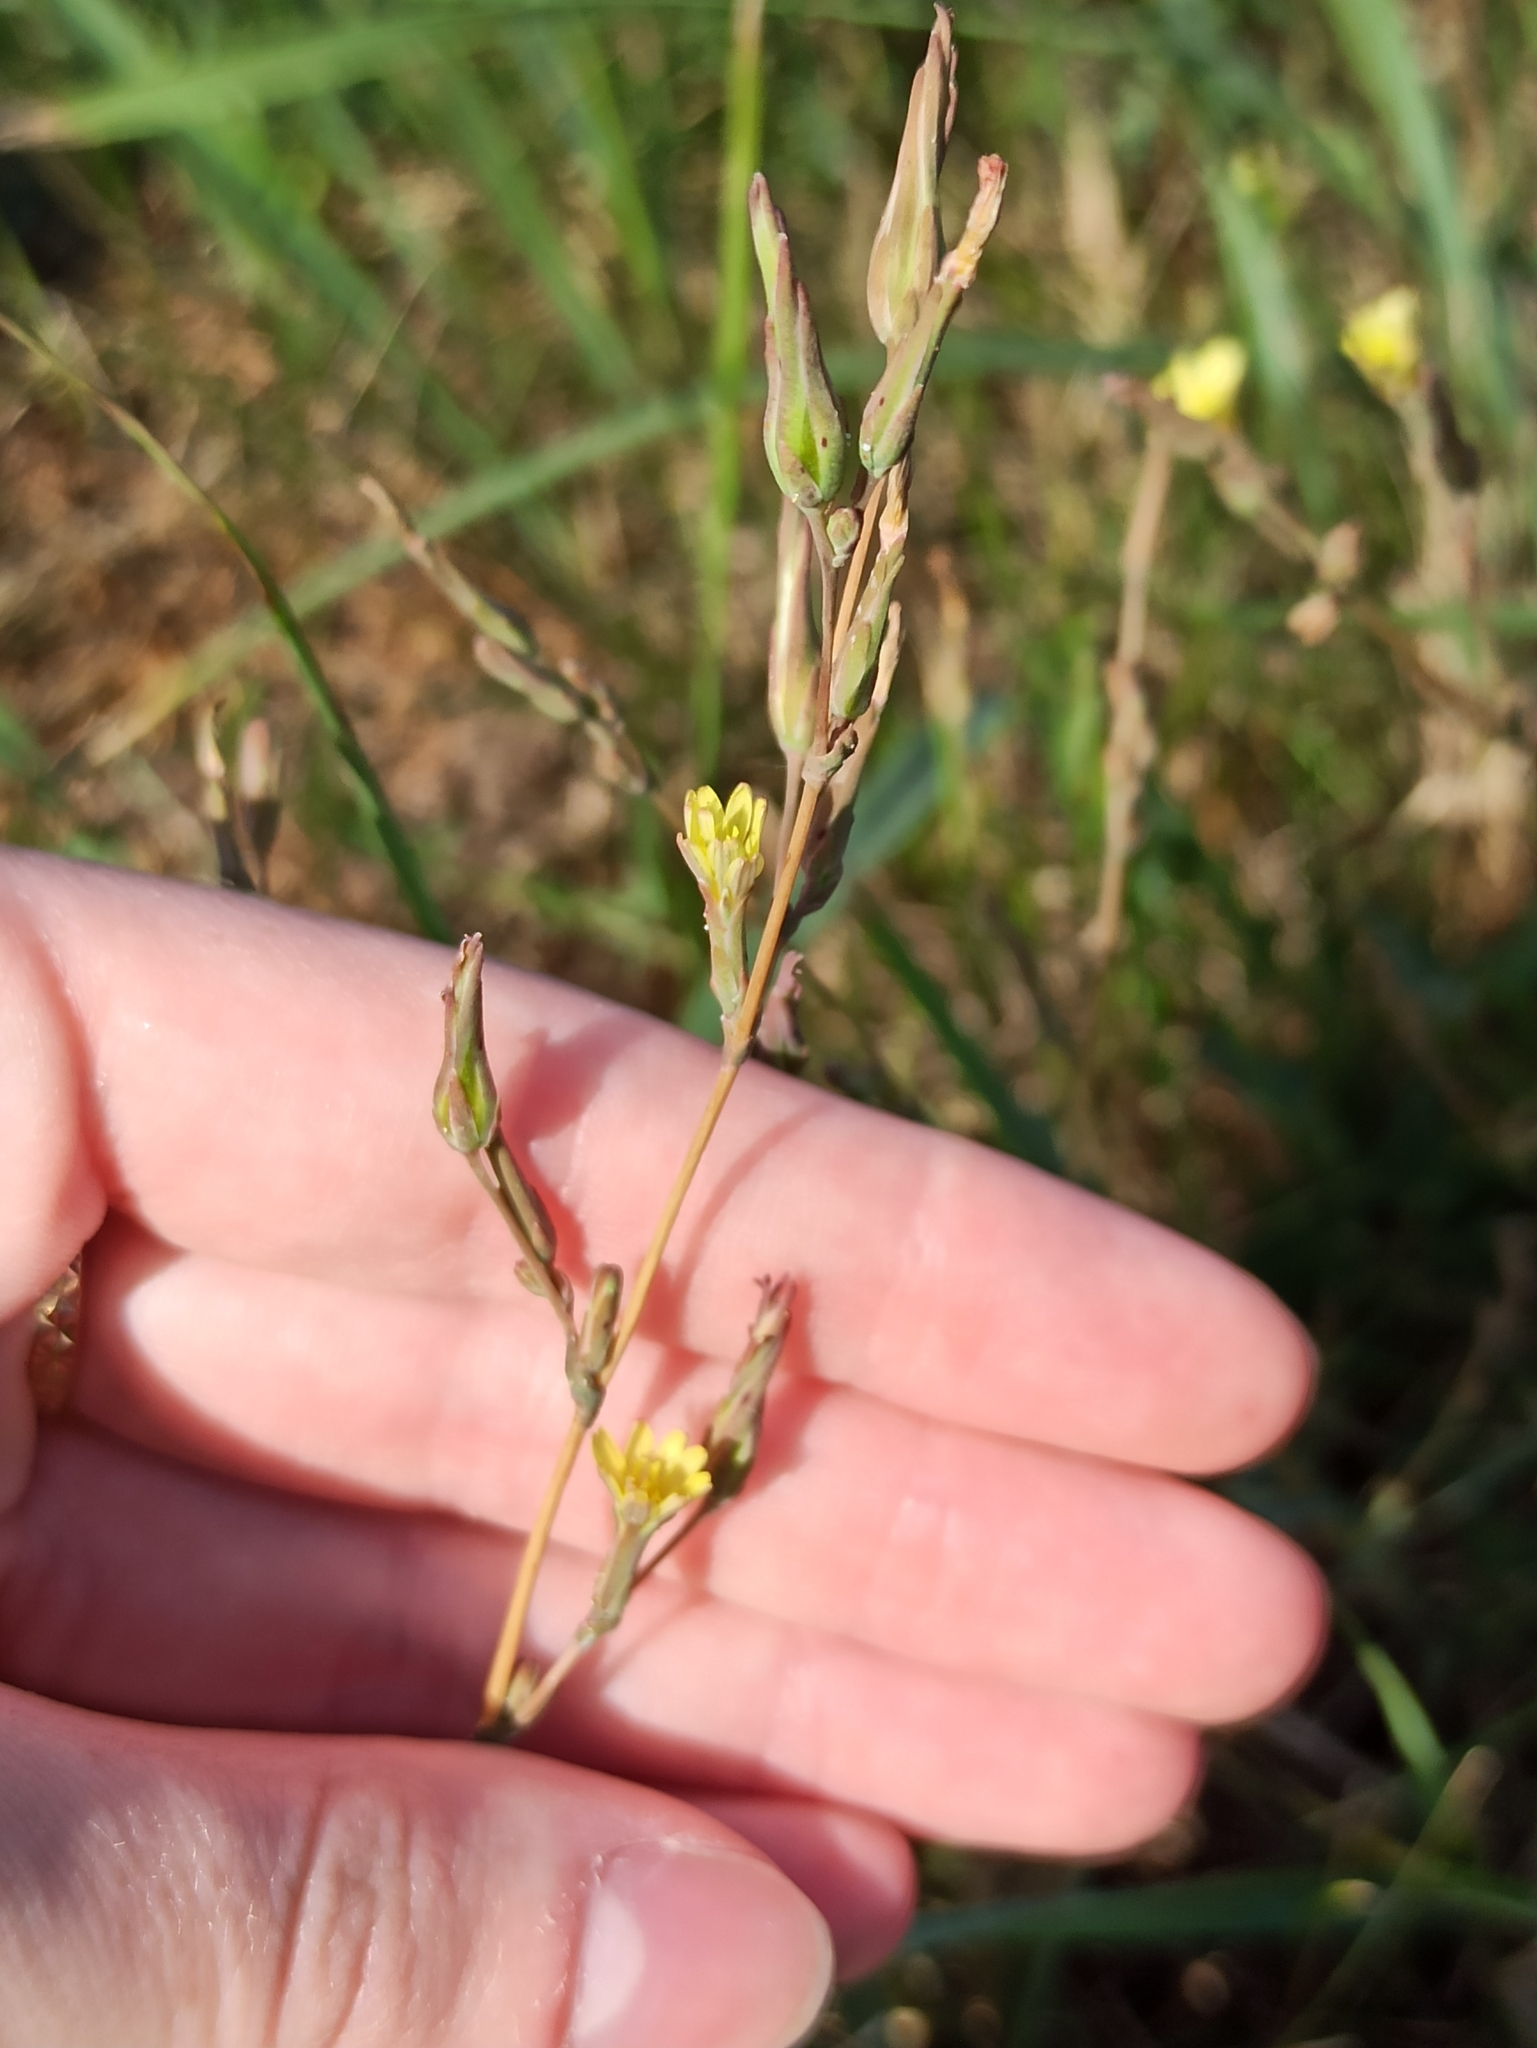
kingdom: Plantae
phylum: Tracheophyta
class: Magnoliopsida
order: Asterales
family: Asteraceae
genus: Lactuca
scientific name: Lactuca serriola
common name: Prickly lettuce
